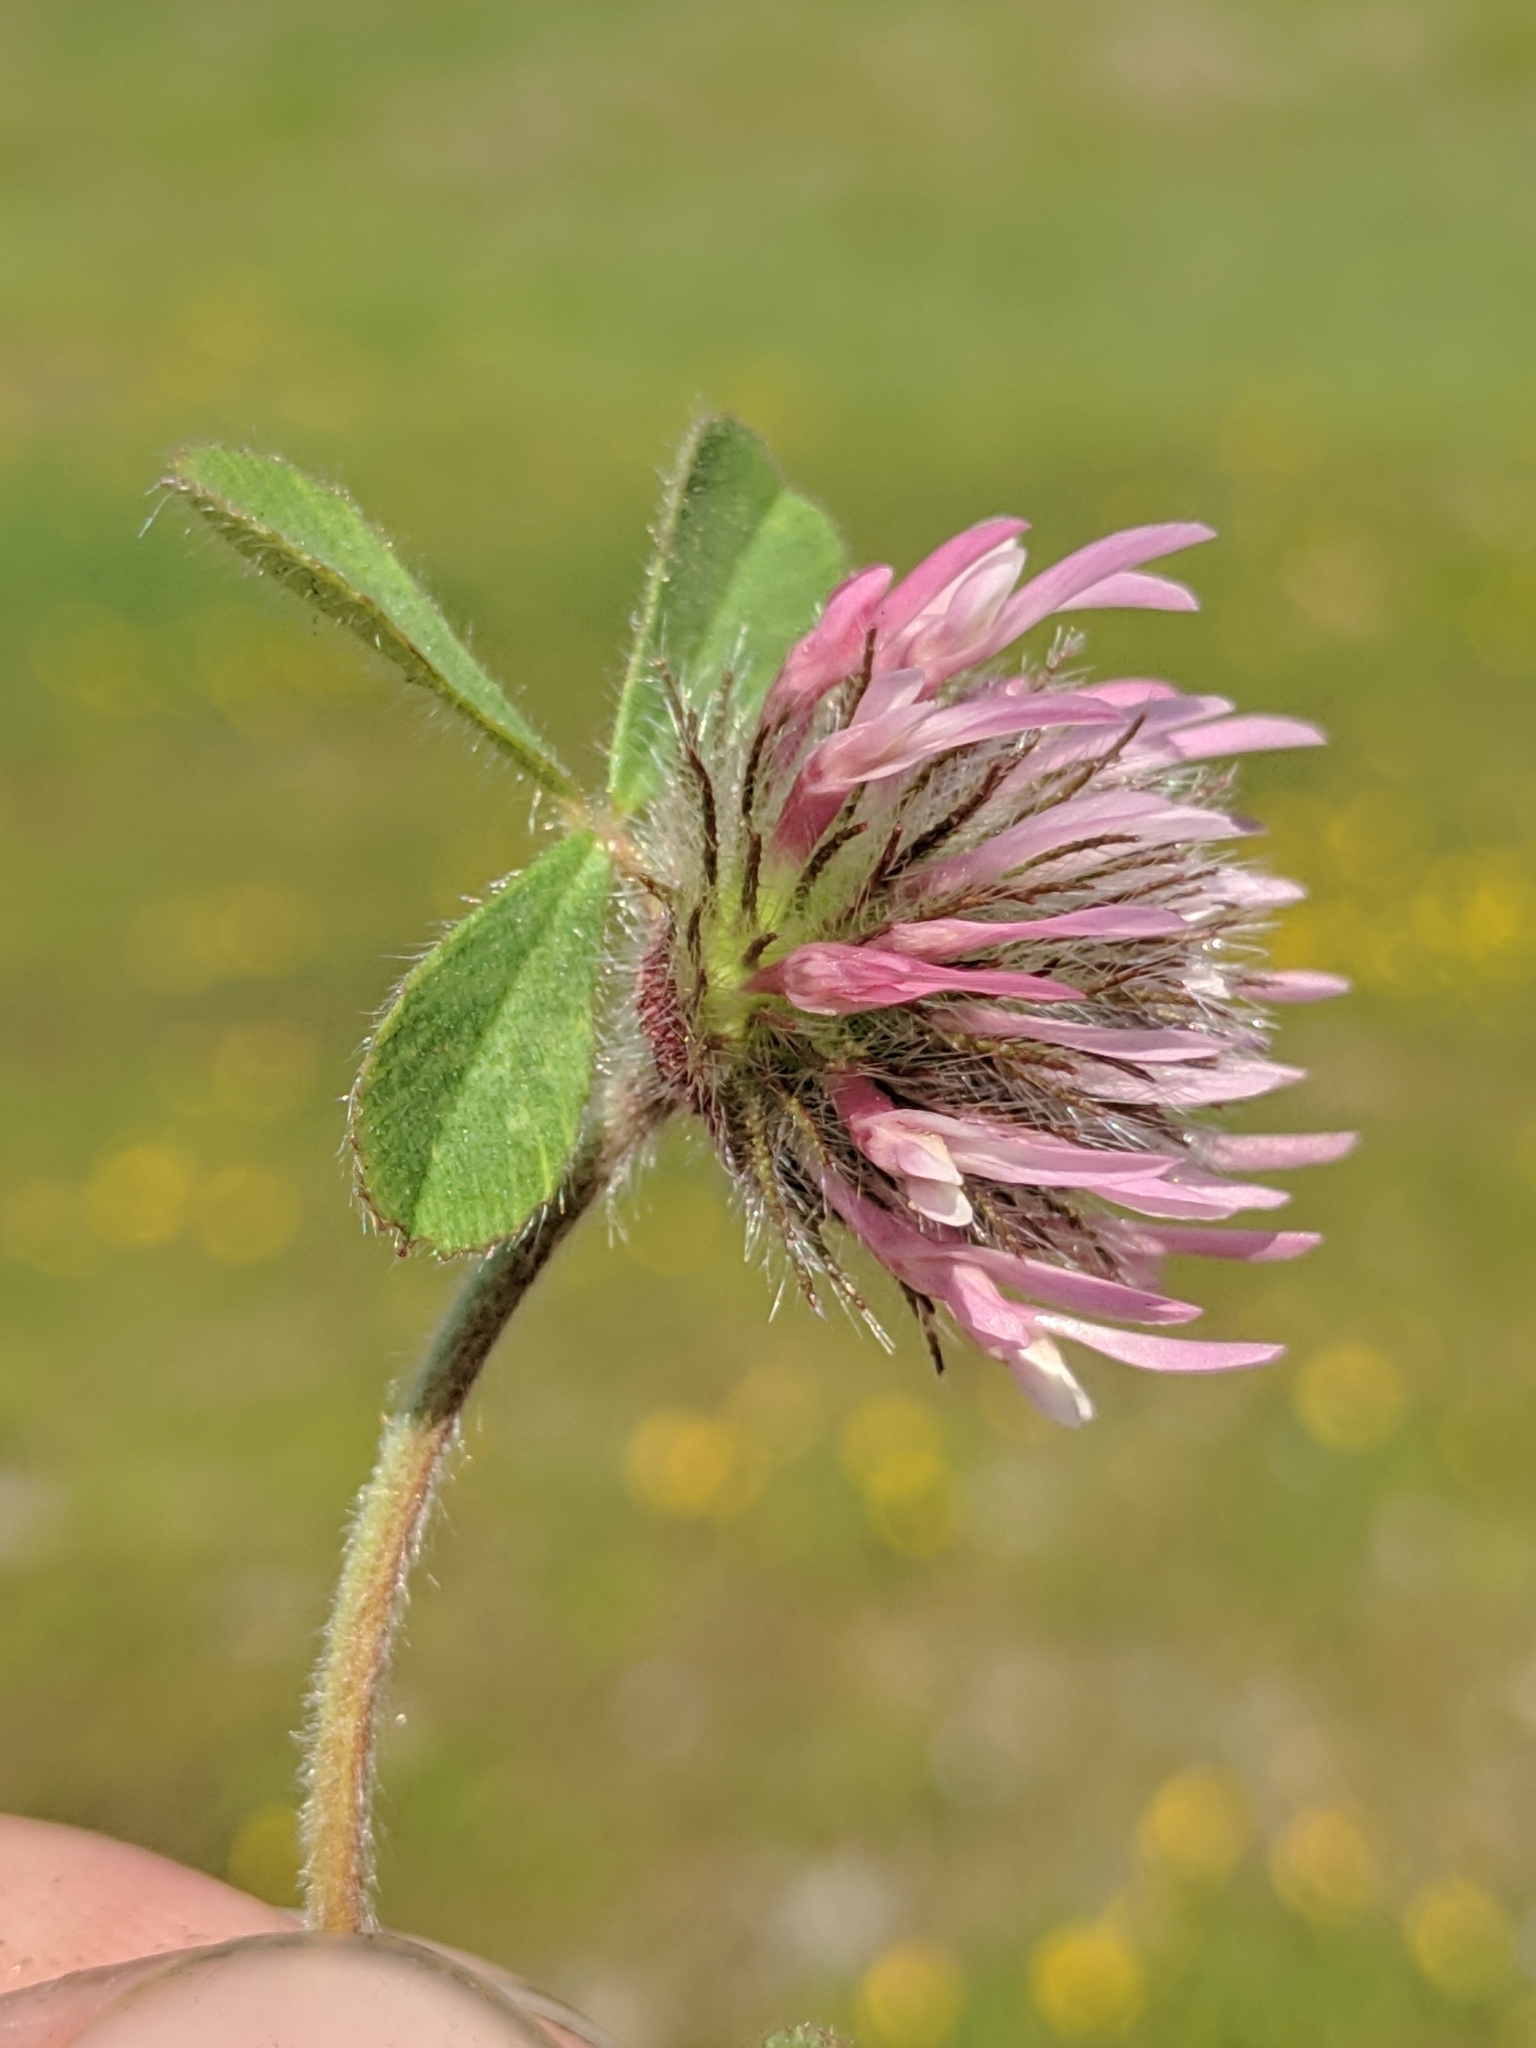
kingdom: Plantae
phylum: Tracheophyta
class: Magnoliopsida
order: Fabales
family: Fabaceae
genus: Trifolium
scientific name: Trifolium hirtum
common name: Rose clover
